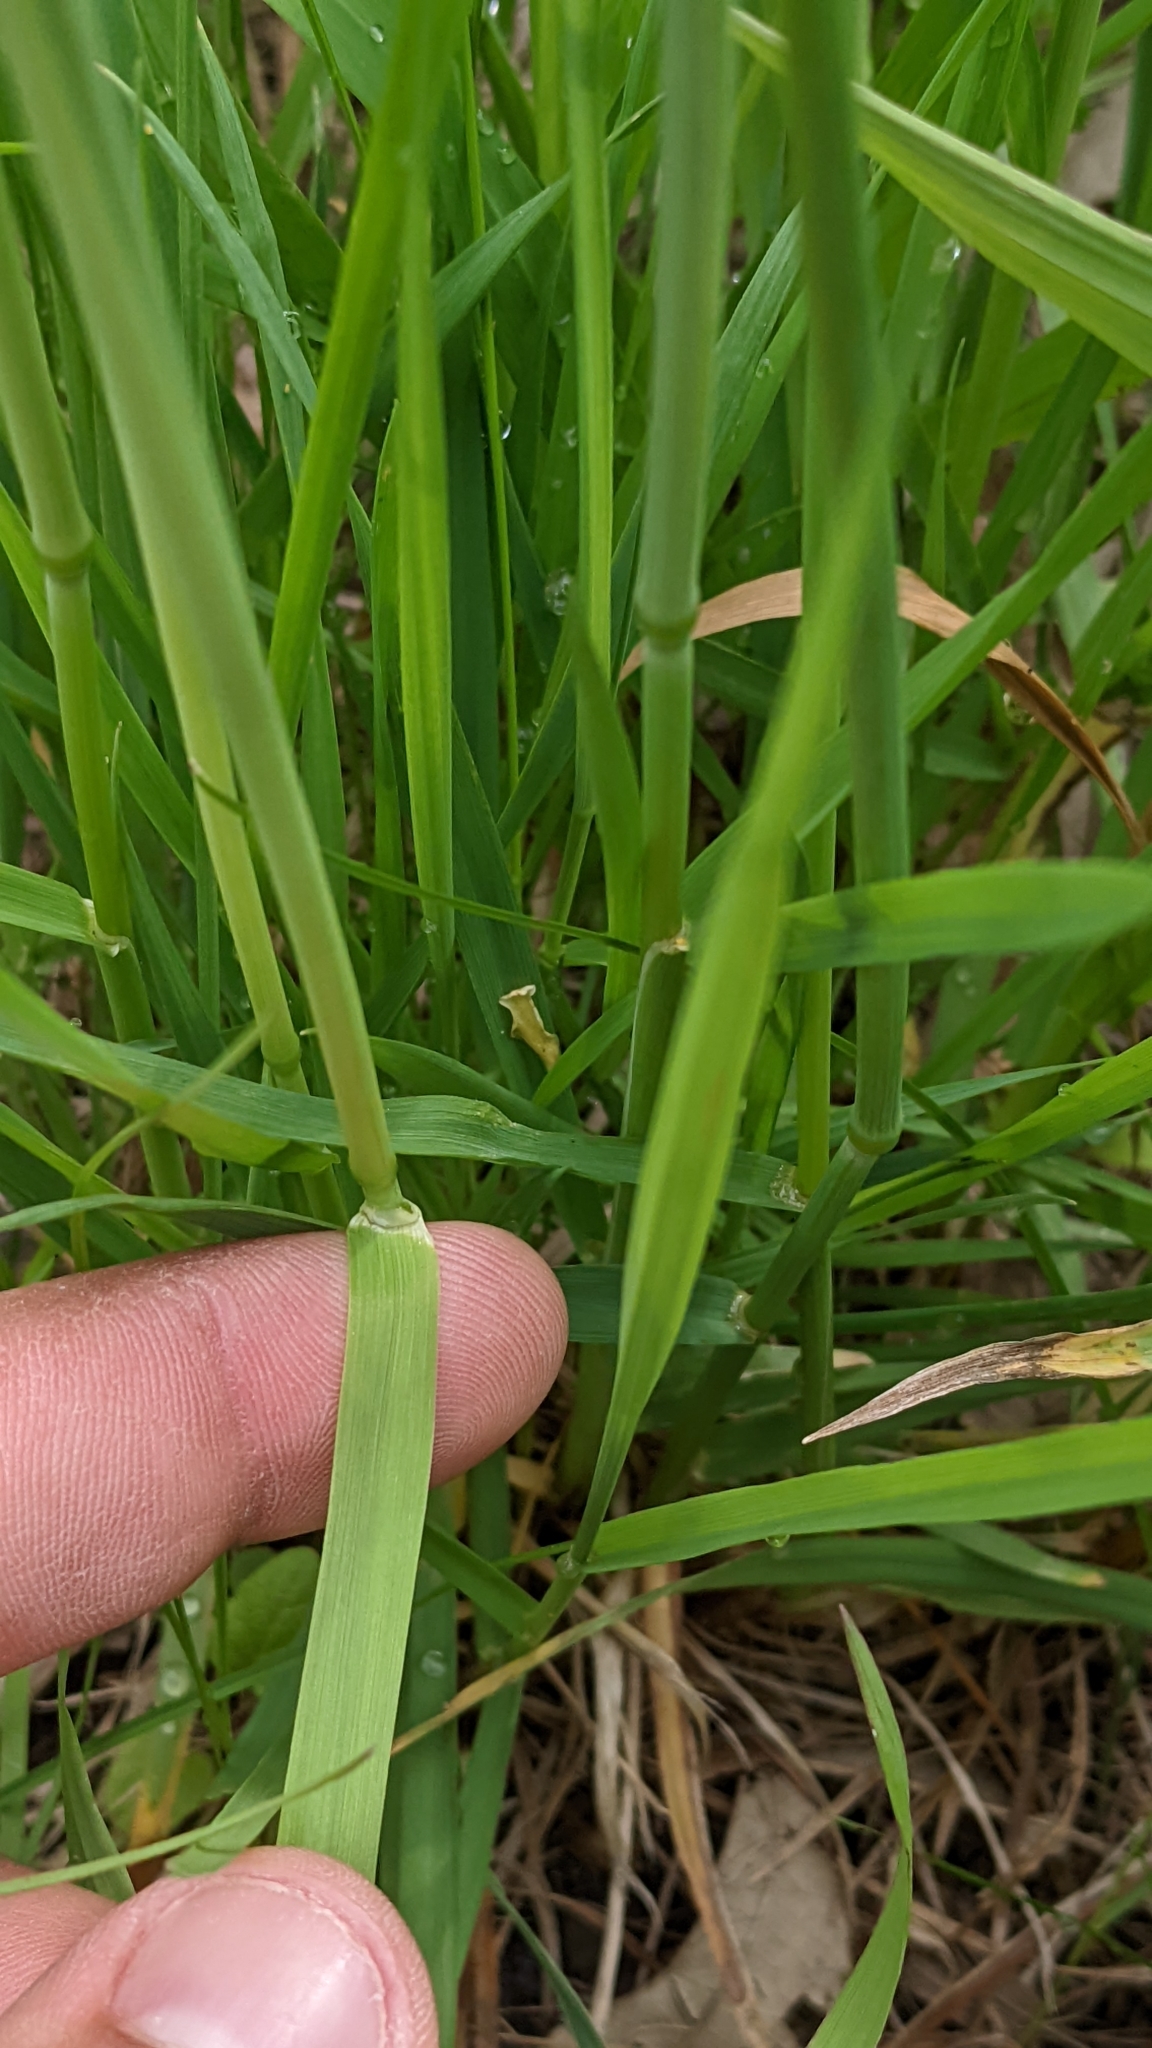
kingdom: Plantae
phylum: Tracheophyta
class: Liliopsida
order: Poales
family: Poaceae
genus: Alopecurus
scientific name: Alopecurus pratensis
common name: Meadow foxtail
